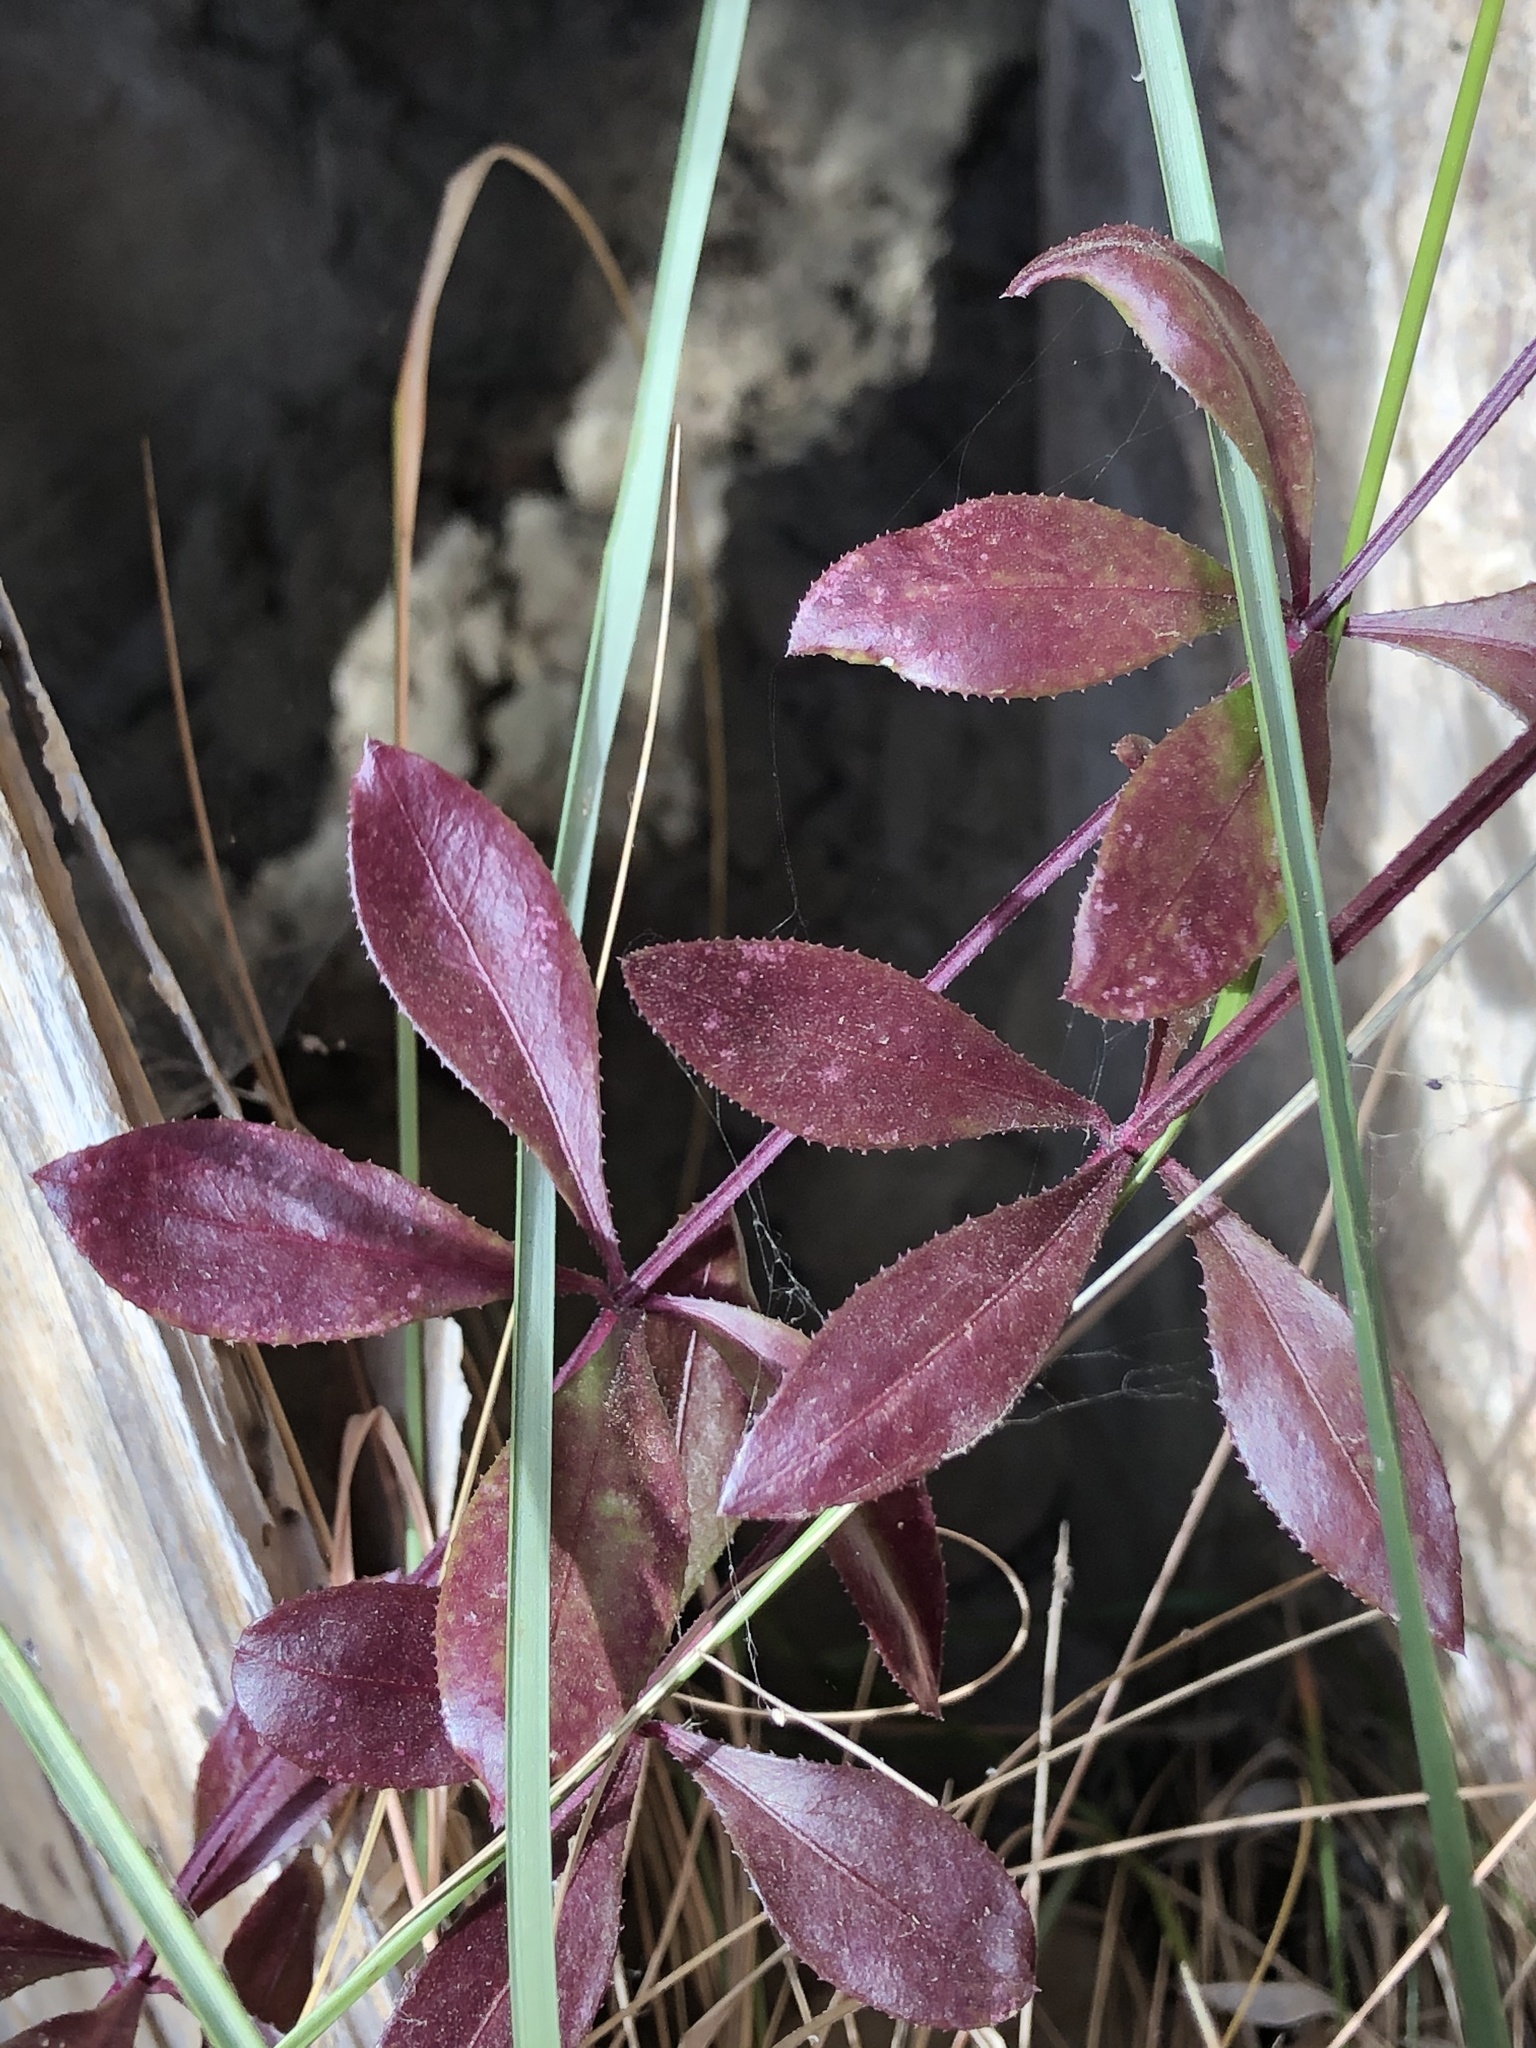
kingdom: Plantae
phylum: Tracheophyta
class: Magnoliopsida
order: Gentianales
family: Rubiaceae
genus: Rubia
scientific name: Rubia peregrina
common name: Wild madder
